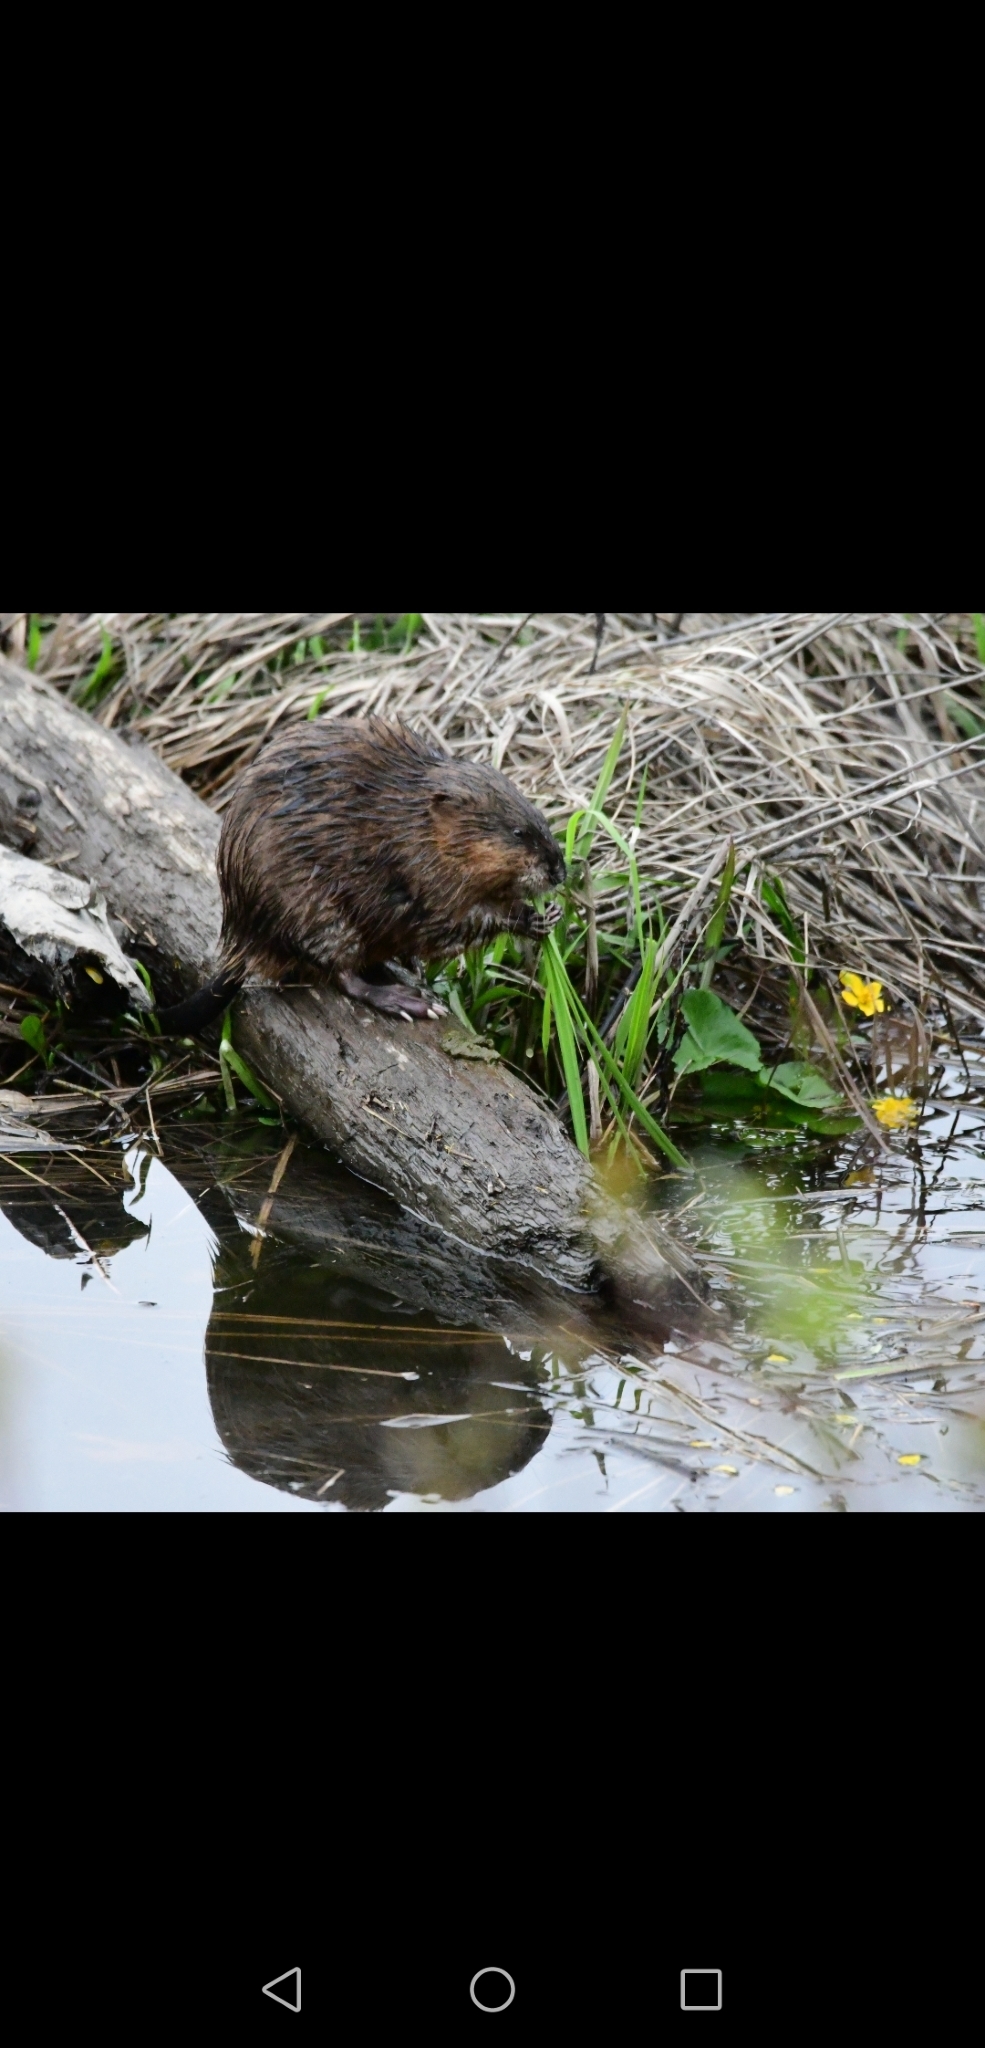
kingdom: Animalia
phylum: Chordata
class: Mammalia
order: Rodentia
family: Cricetidae
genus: Ondatra
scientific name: Ondatra zibethicus
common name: Muskrat
